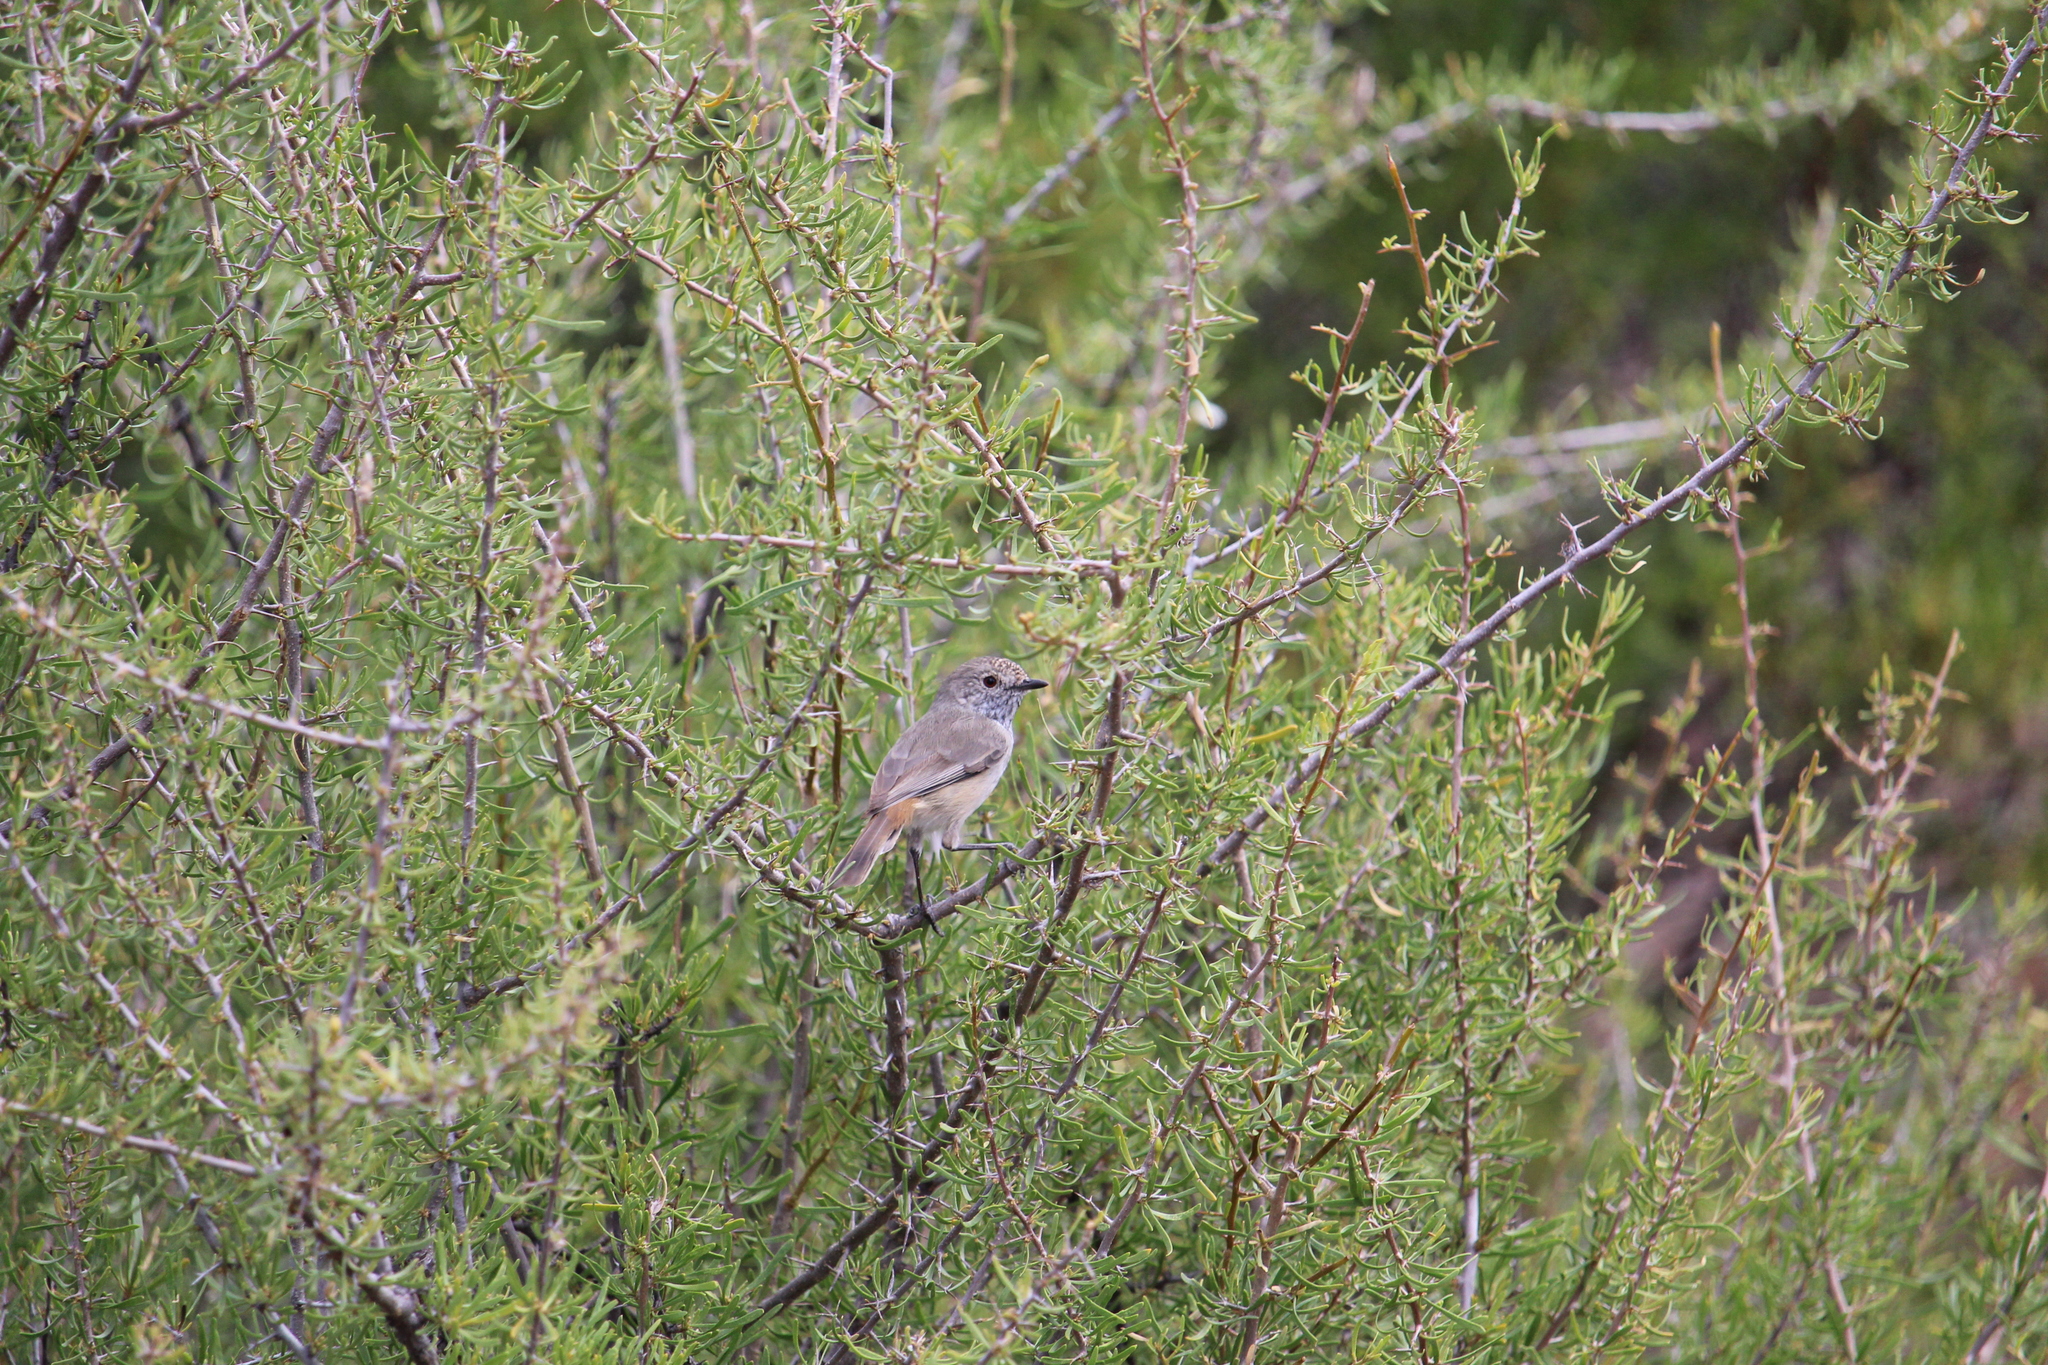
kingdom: Animalia
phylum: Chordata
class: Aves
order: Passeriformes
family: Acanthizidae
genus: Acanthiza
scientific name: Acanthiza apicalis
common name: Inland thornbill
